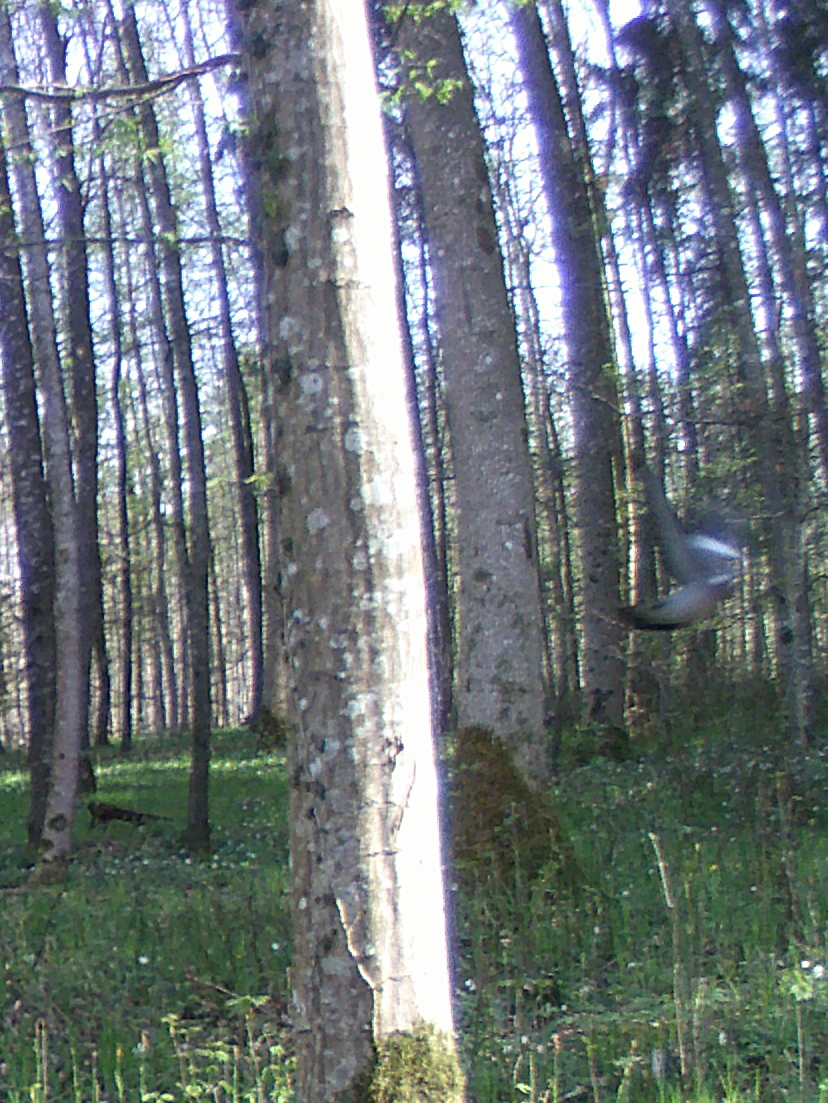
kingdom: Animalia
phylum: Chordata
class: Aves
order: Columbiformes
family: Columbidae
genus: Columba
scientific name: Columba palumbus
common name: Common wood pigeon
